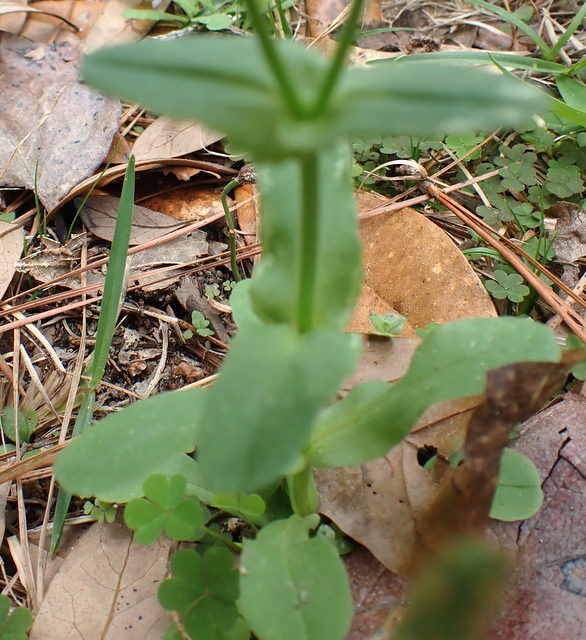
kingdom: Plantae
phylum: Tracheophyta
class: Magnoliopsida
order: Dipsacales
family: Caprifoliaceae
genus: Valerianella
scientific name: Valerianella radiata
